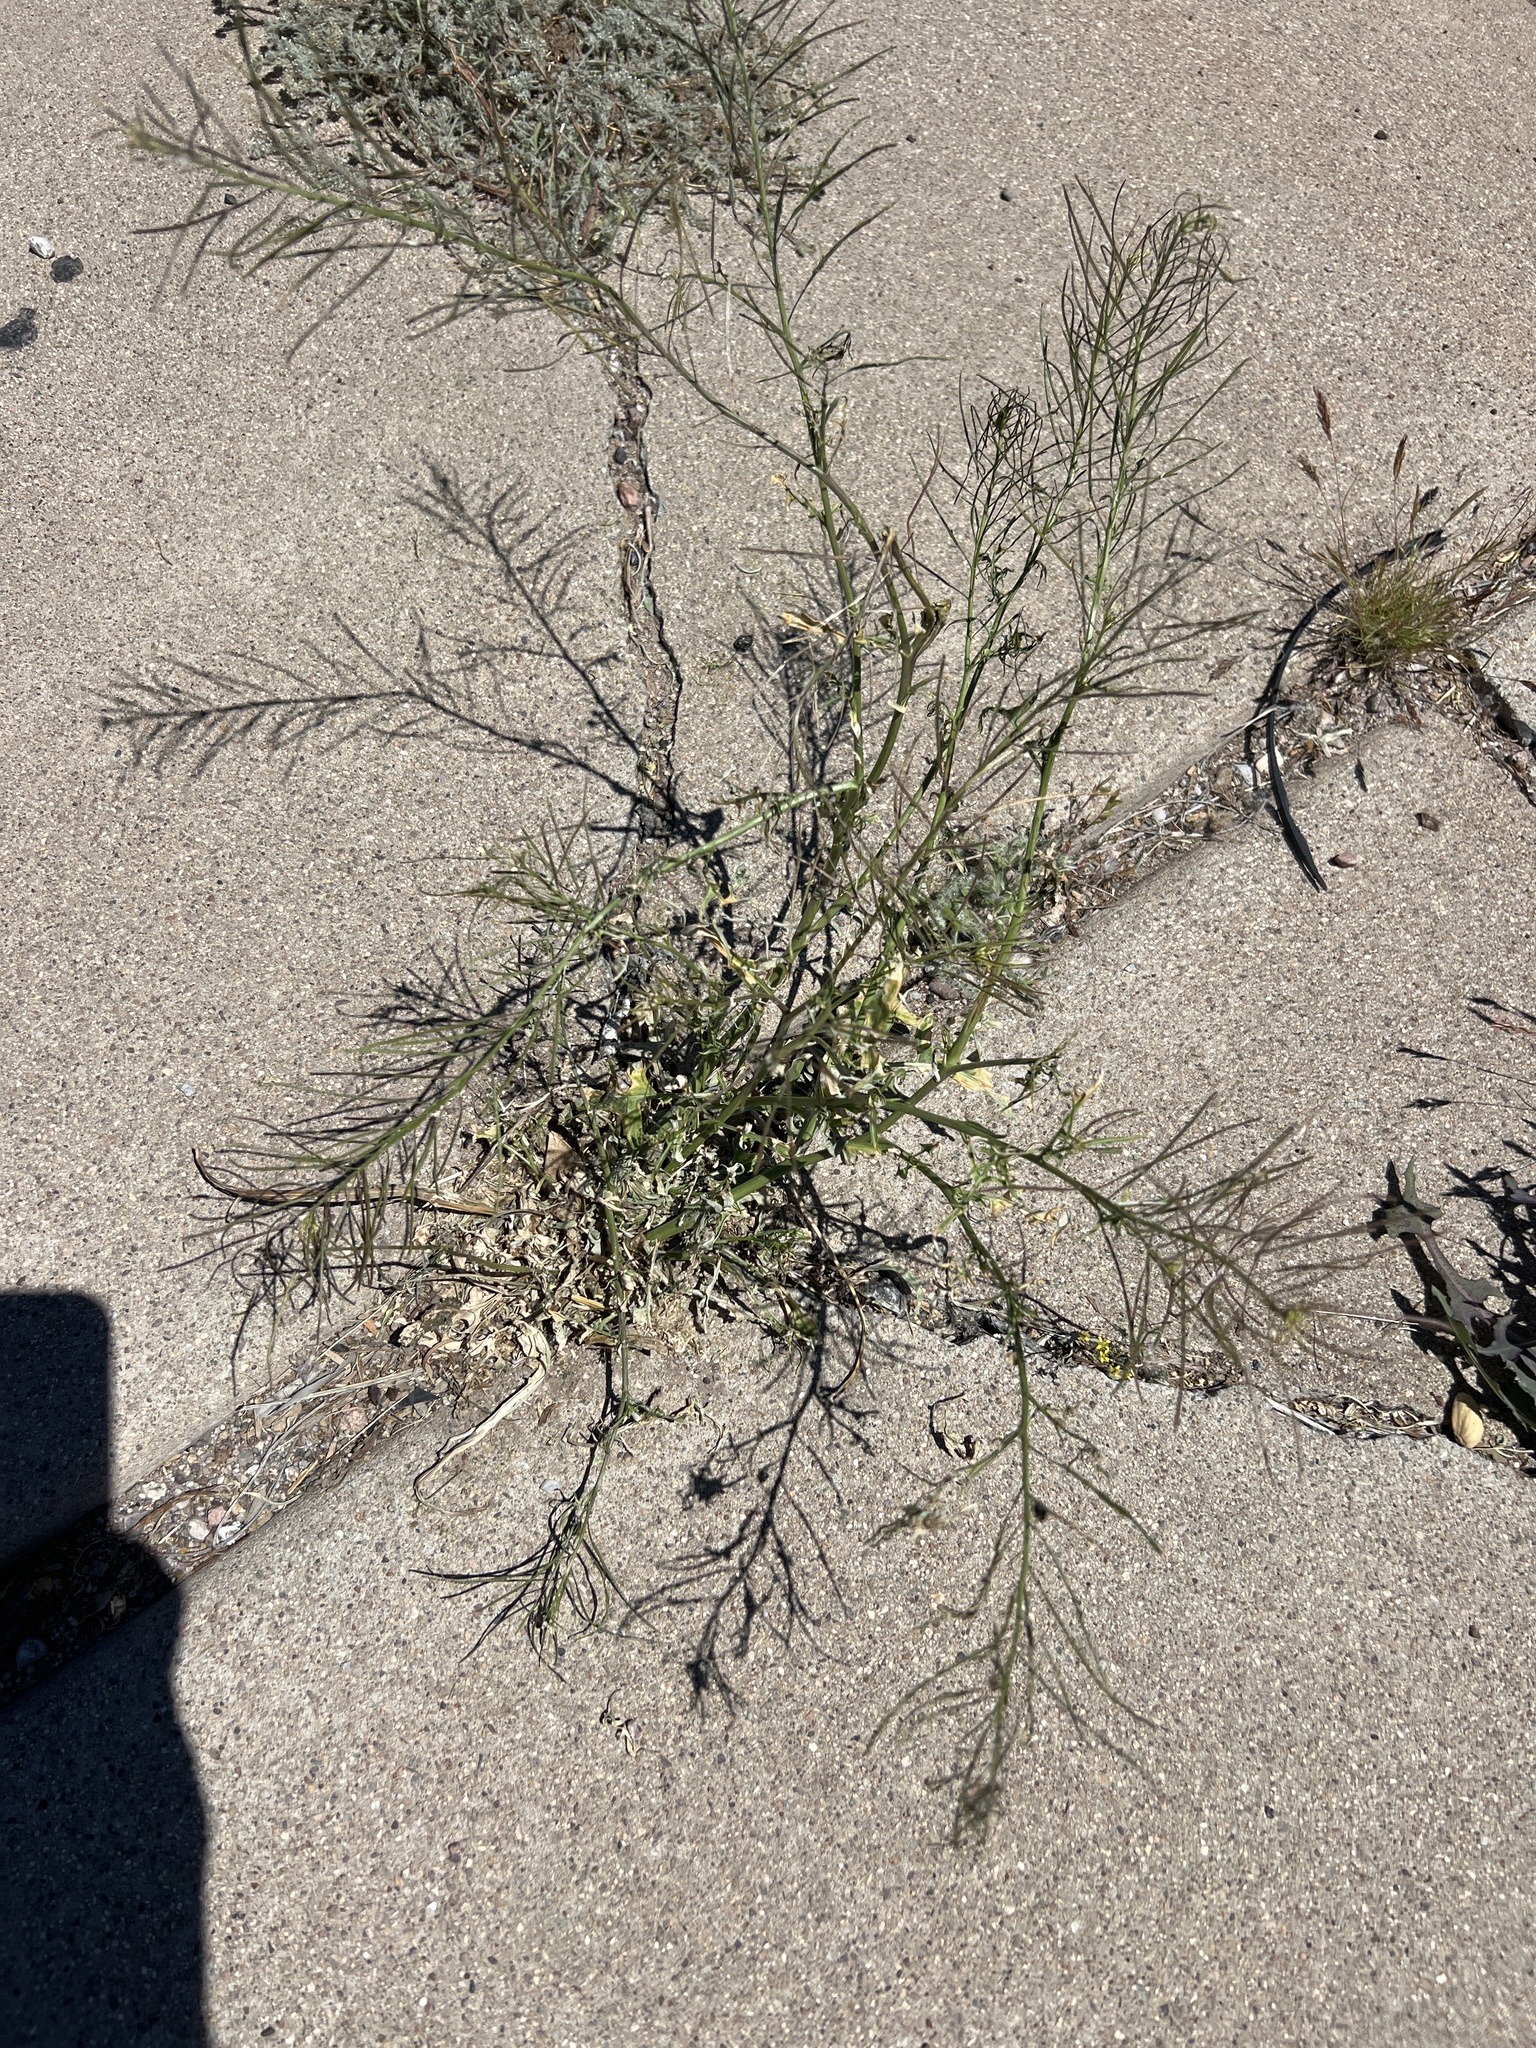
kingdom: Plantae
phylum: Tracheophyta
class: Magnoliopsida
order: Brassicales
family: Brassicaceae
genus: Sisymbrium
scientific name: Sisymbrium irio
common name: London rocket
